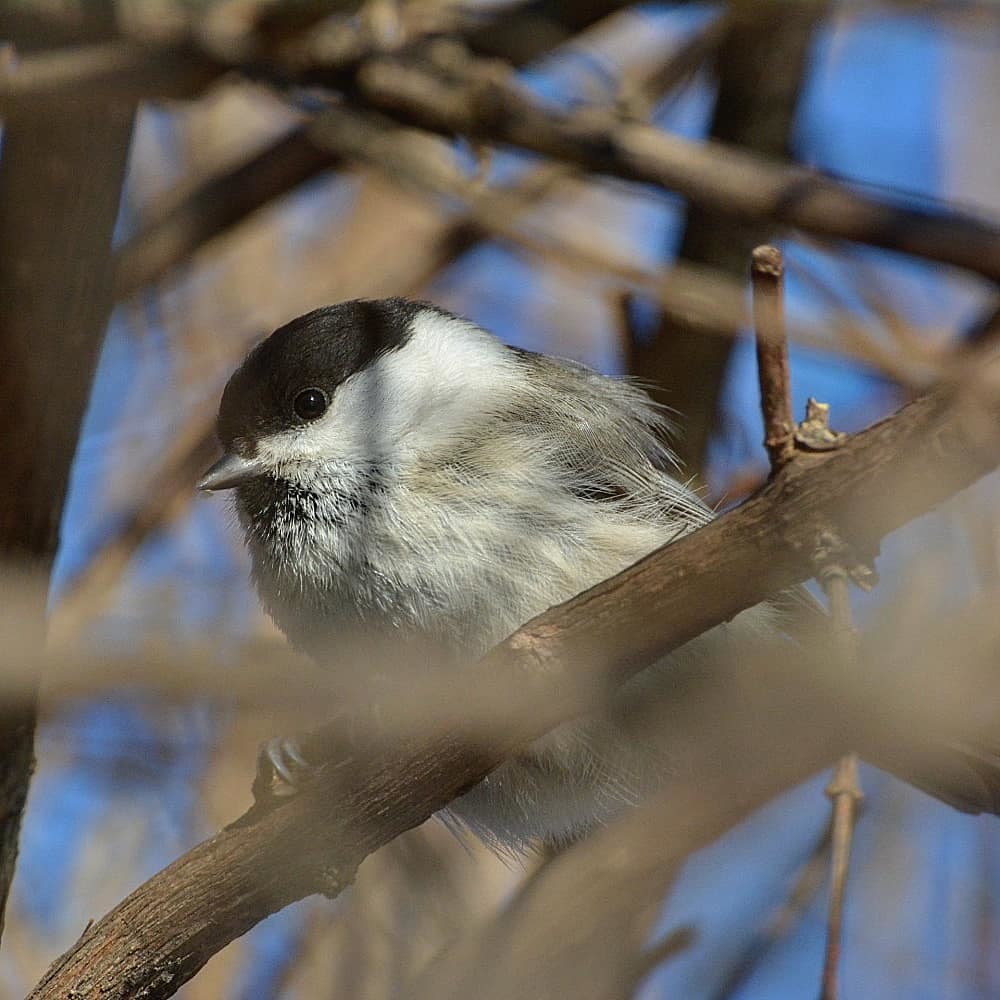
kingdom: Animalia
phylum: Chordata
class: Aves
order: Passeriformes
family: Paridae
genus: Poecile
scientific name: Poecile montanus
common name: Willow tit
